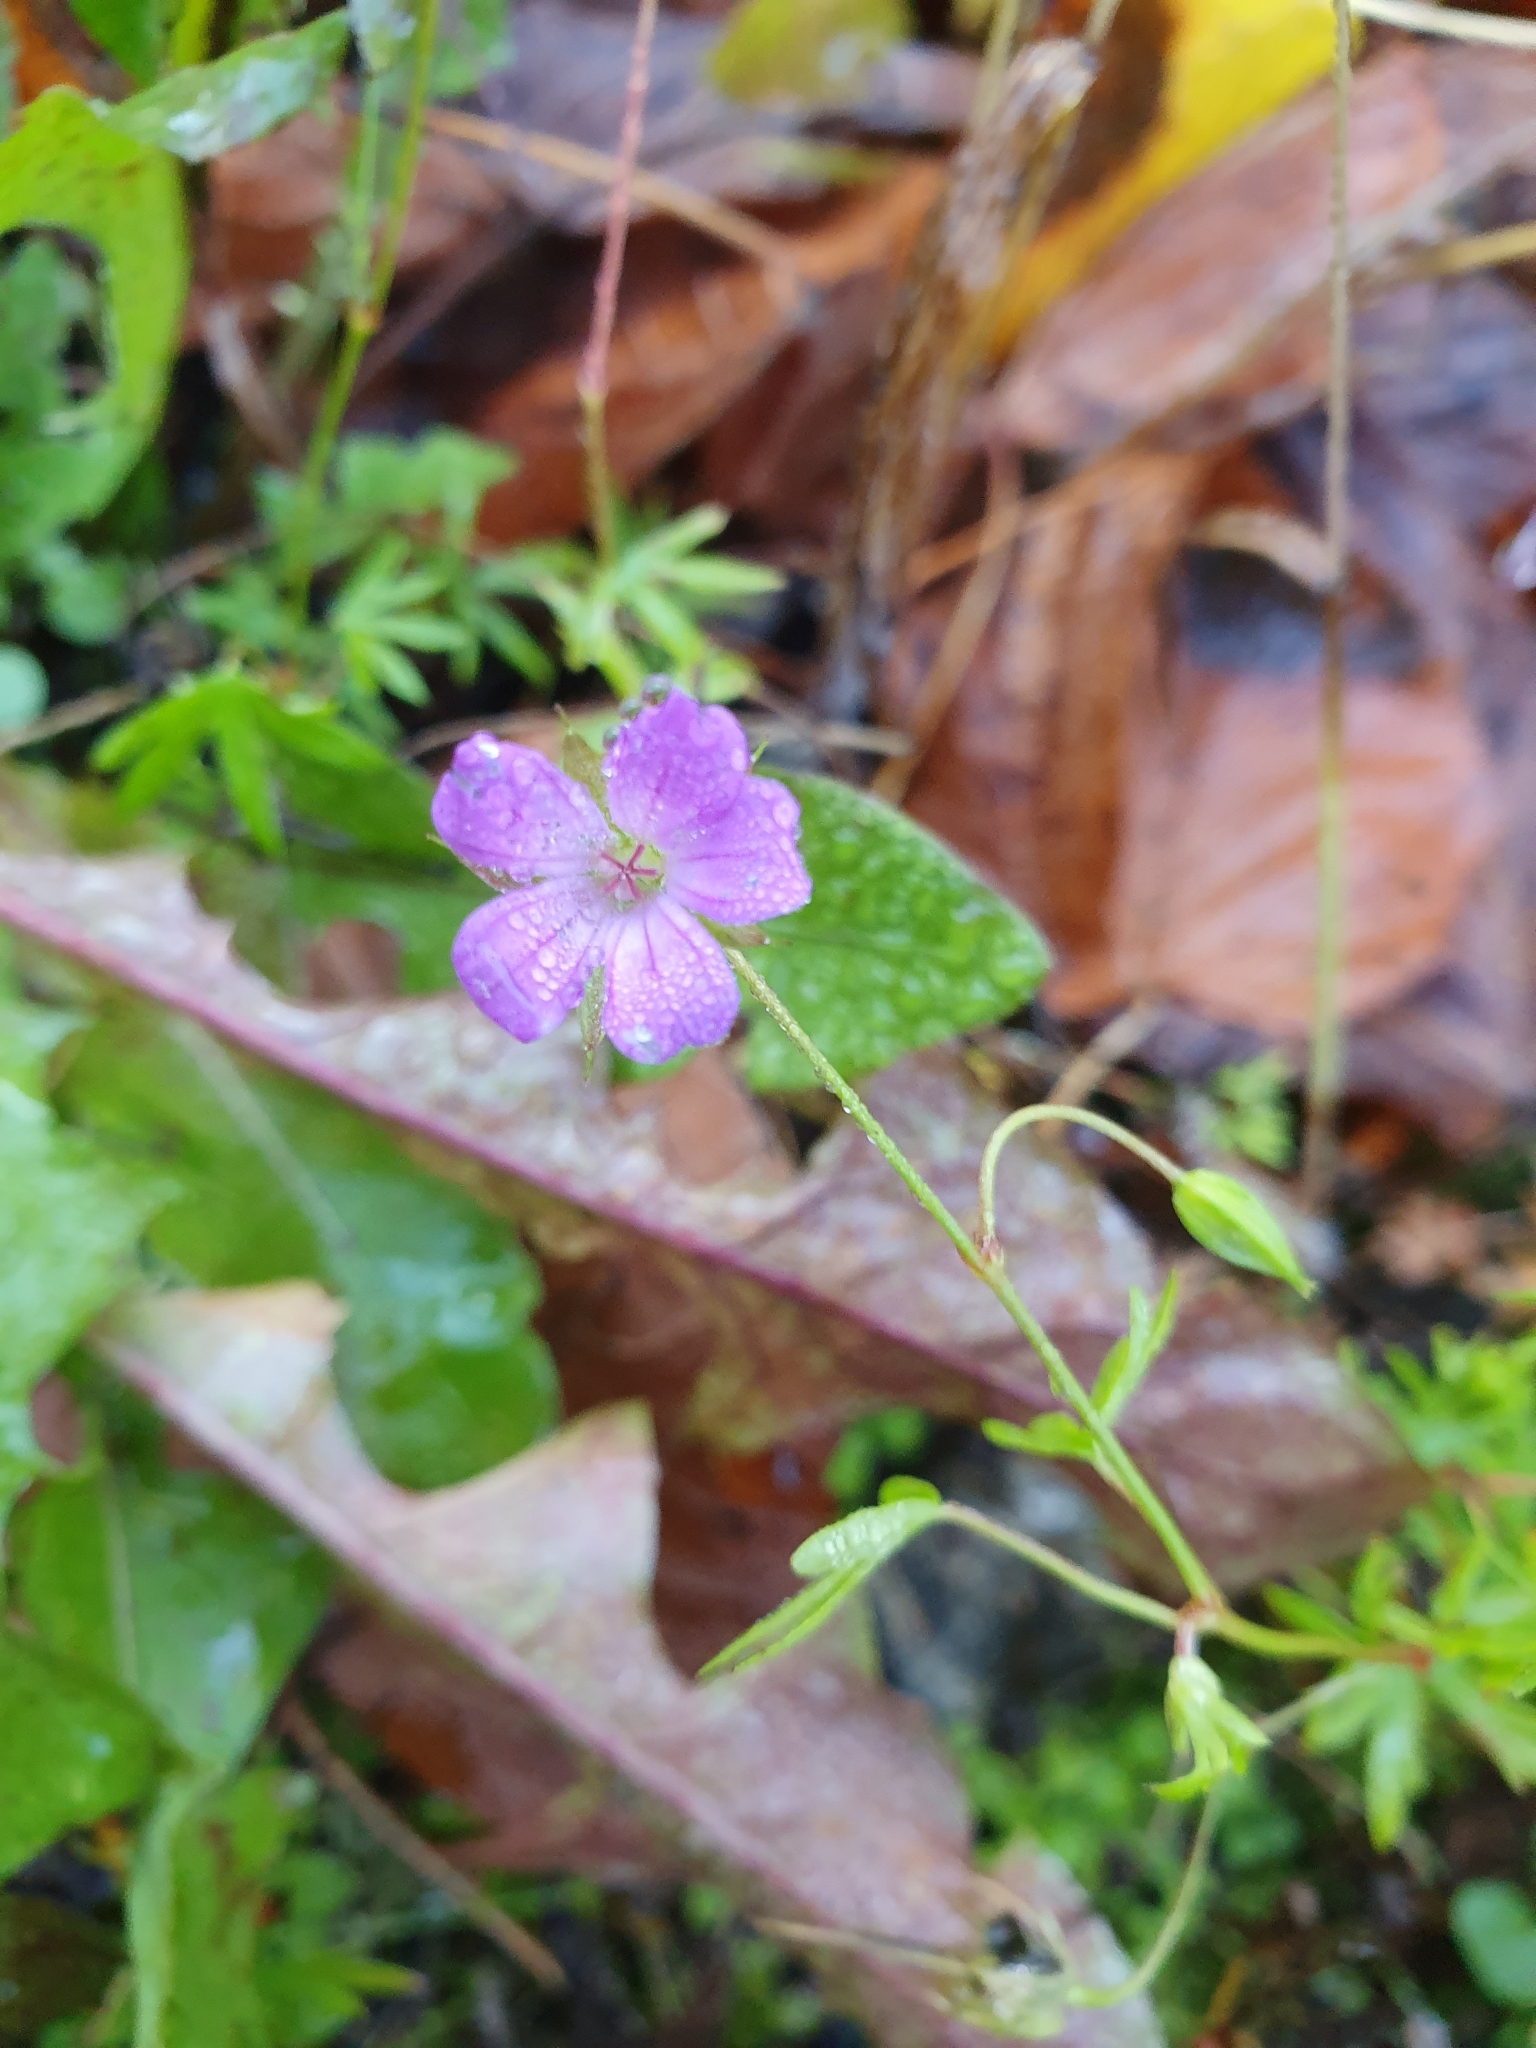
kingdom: Plantae
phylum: Tracheophyta
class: Magnoliopsida
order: Geraniales
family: Geraniaceae
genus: Geranium
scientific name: Geranium columbinum
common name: Long-stalked crane's-bill
